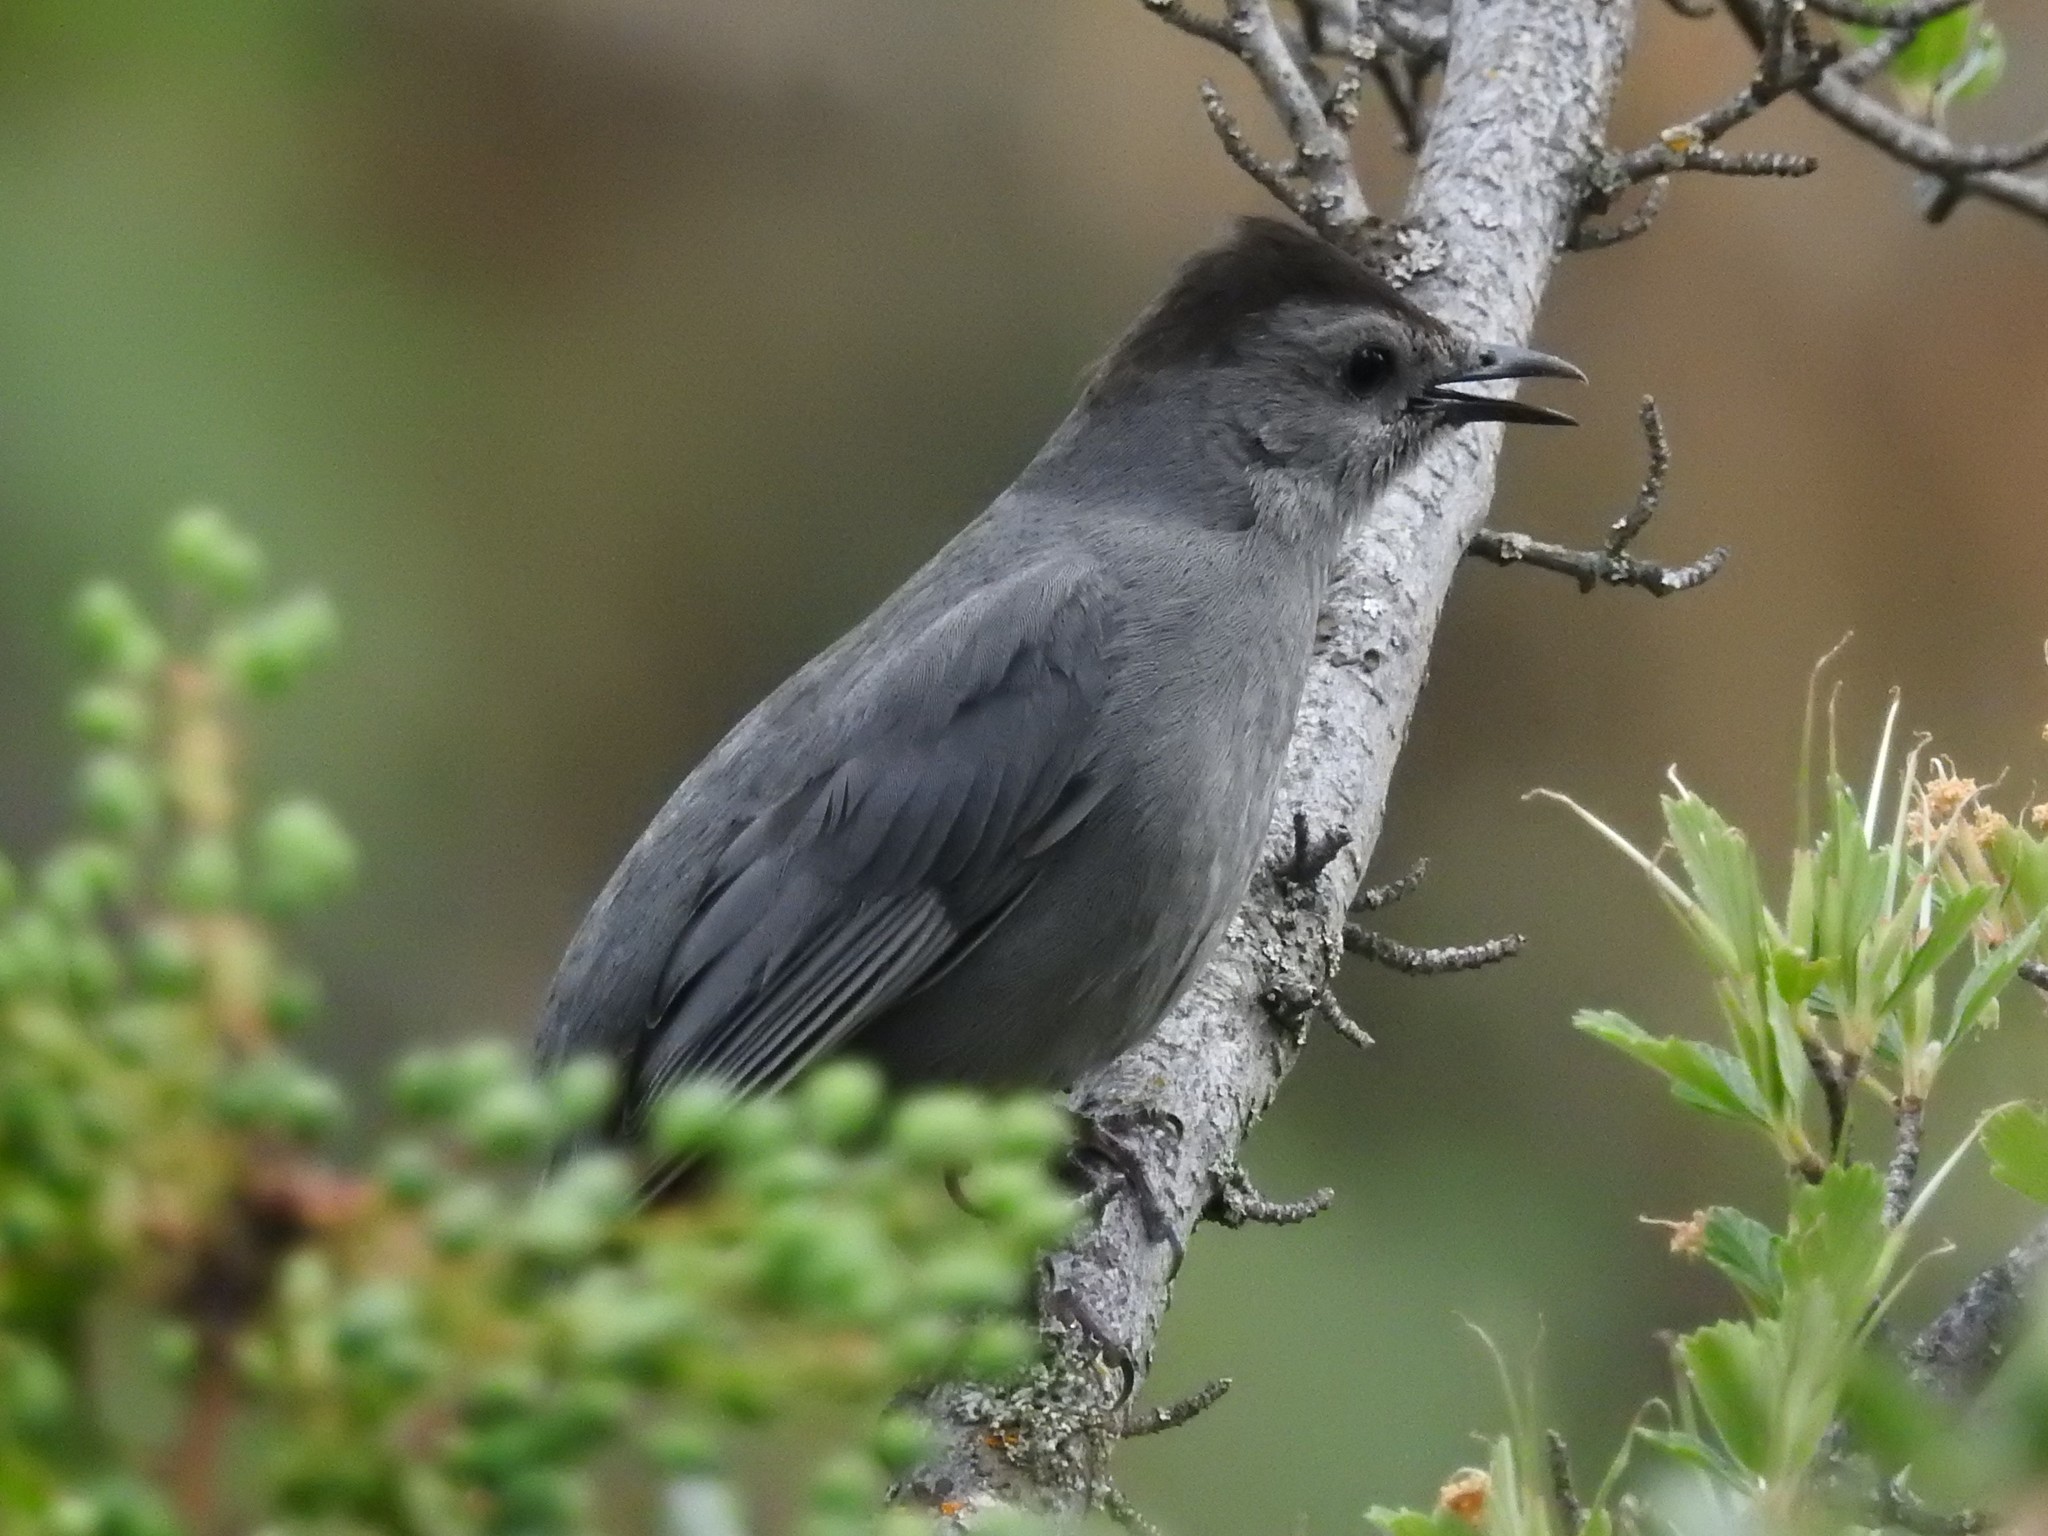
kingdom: Animalia
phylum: Chordata
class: Aves
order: Passeriformes
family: Mimidae
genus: Dumetella
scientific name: Dumetella carolinensis
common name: Gray catbird
